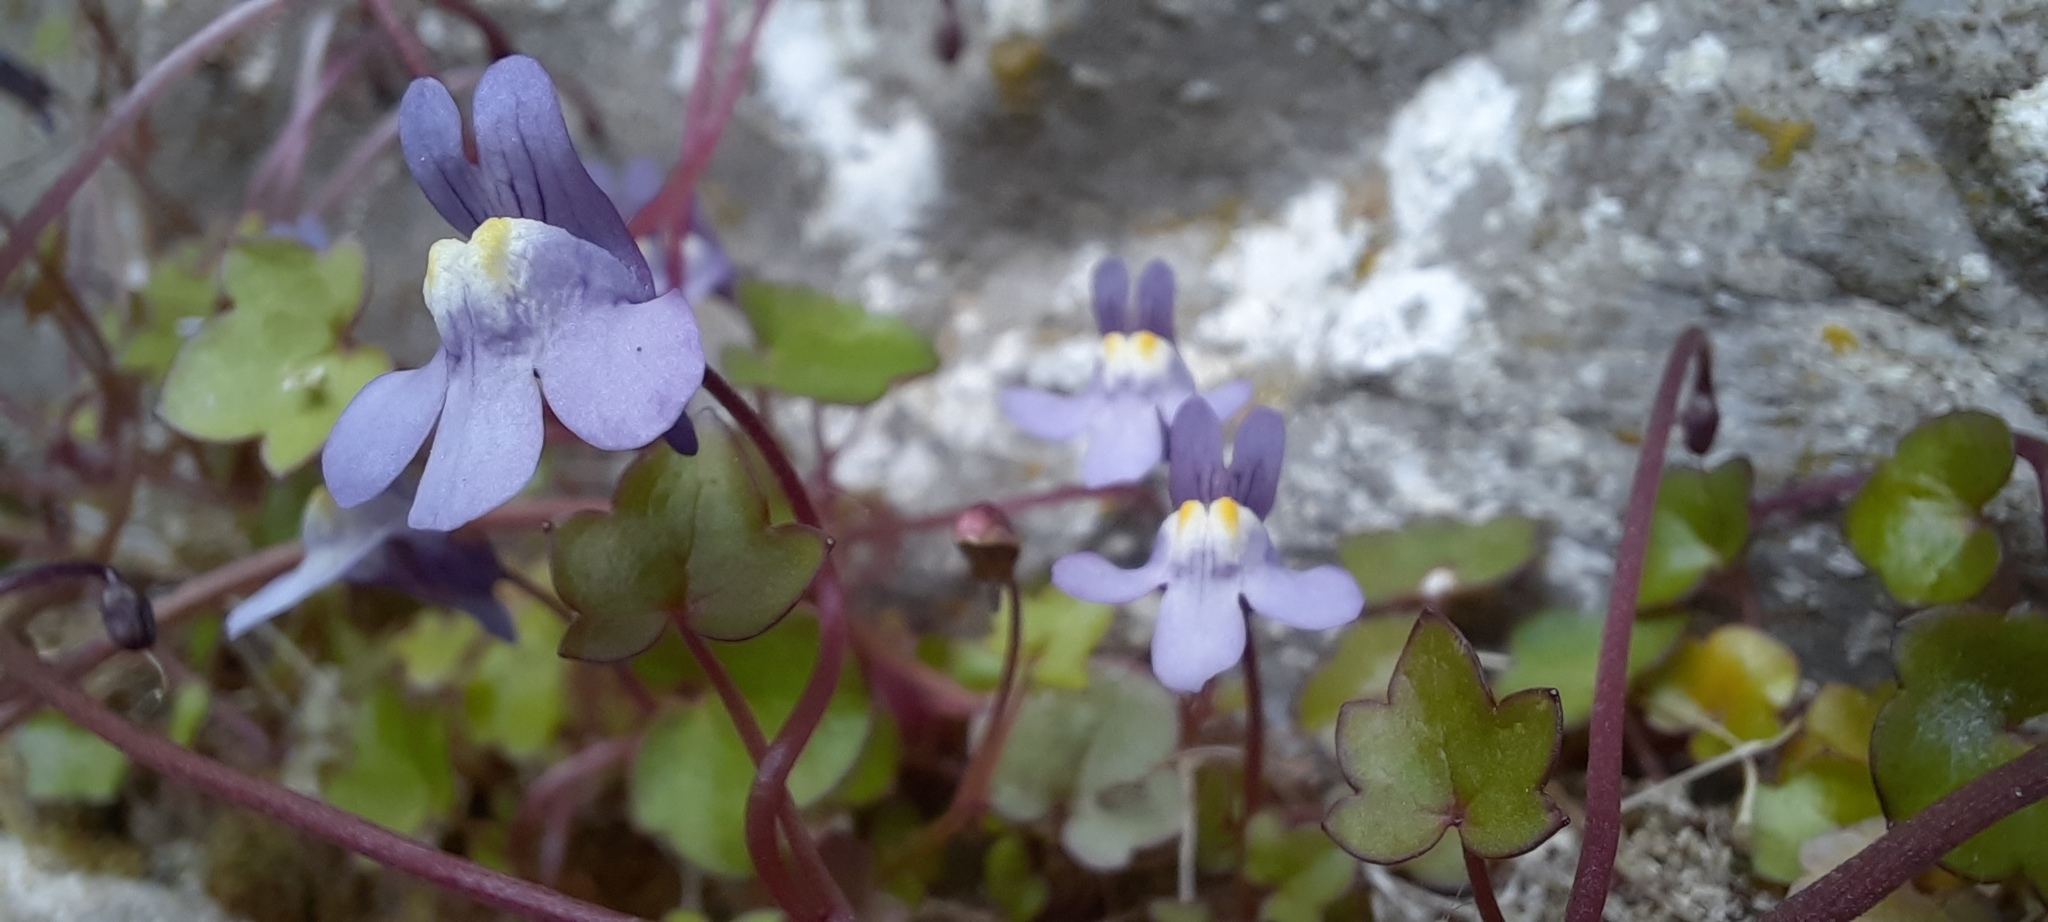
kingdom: Plantae
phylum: Tracheophyta
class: Magnoliopsida
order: Lamiales
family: Plantaginaceae
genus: Cymbalaria
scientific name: Cymbalaria muralis
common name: Ivy-leaved toadflax
